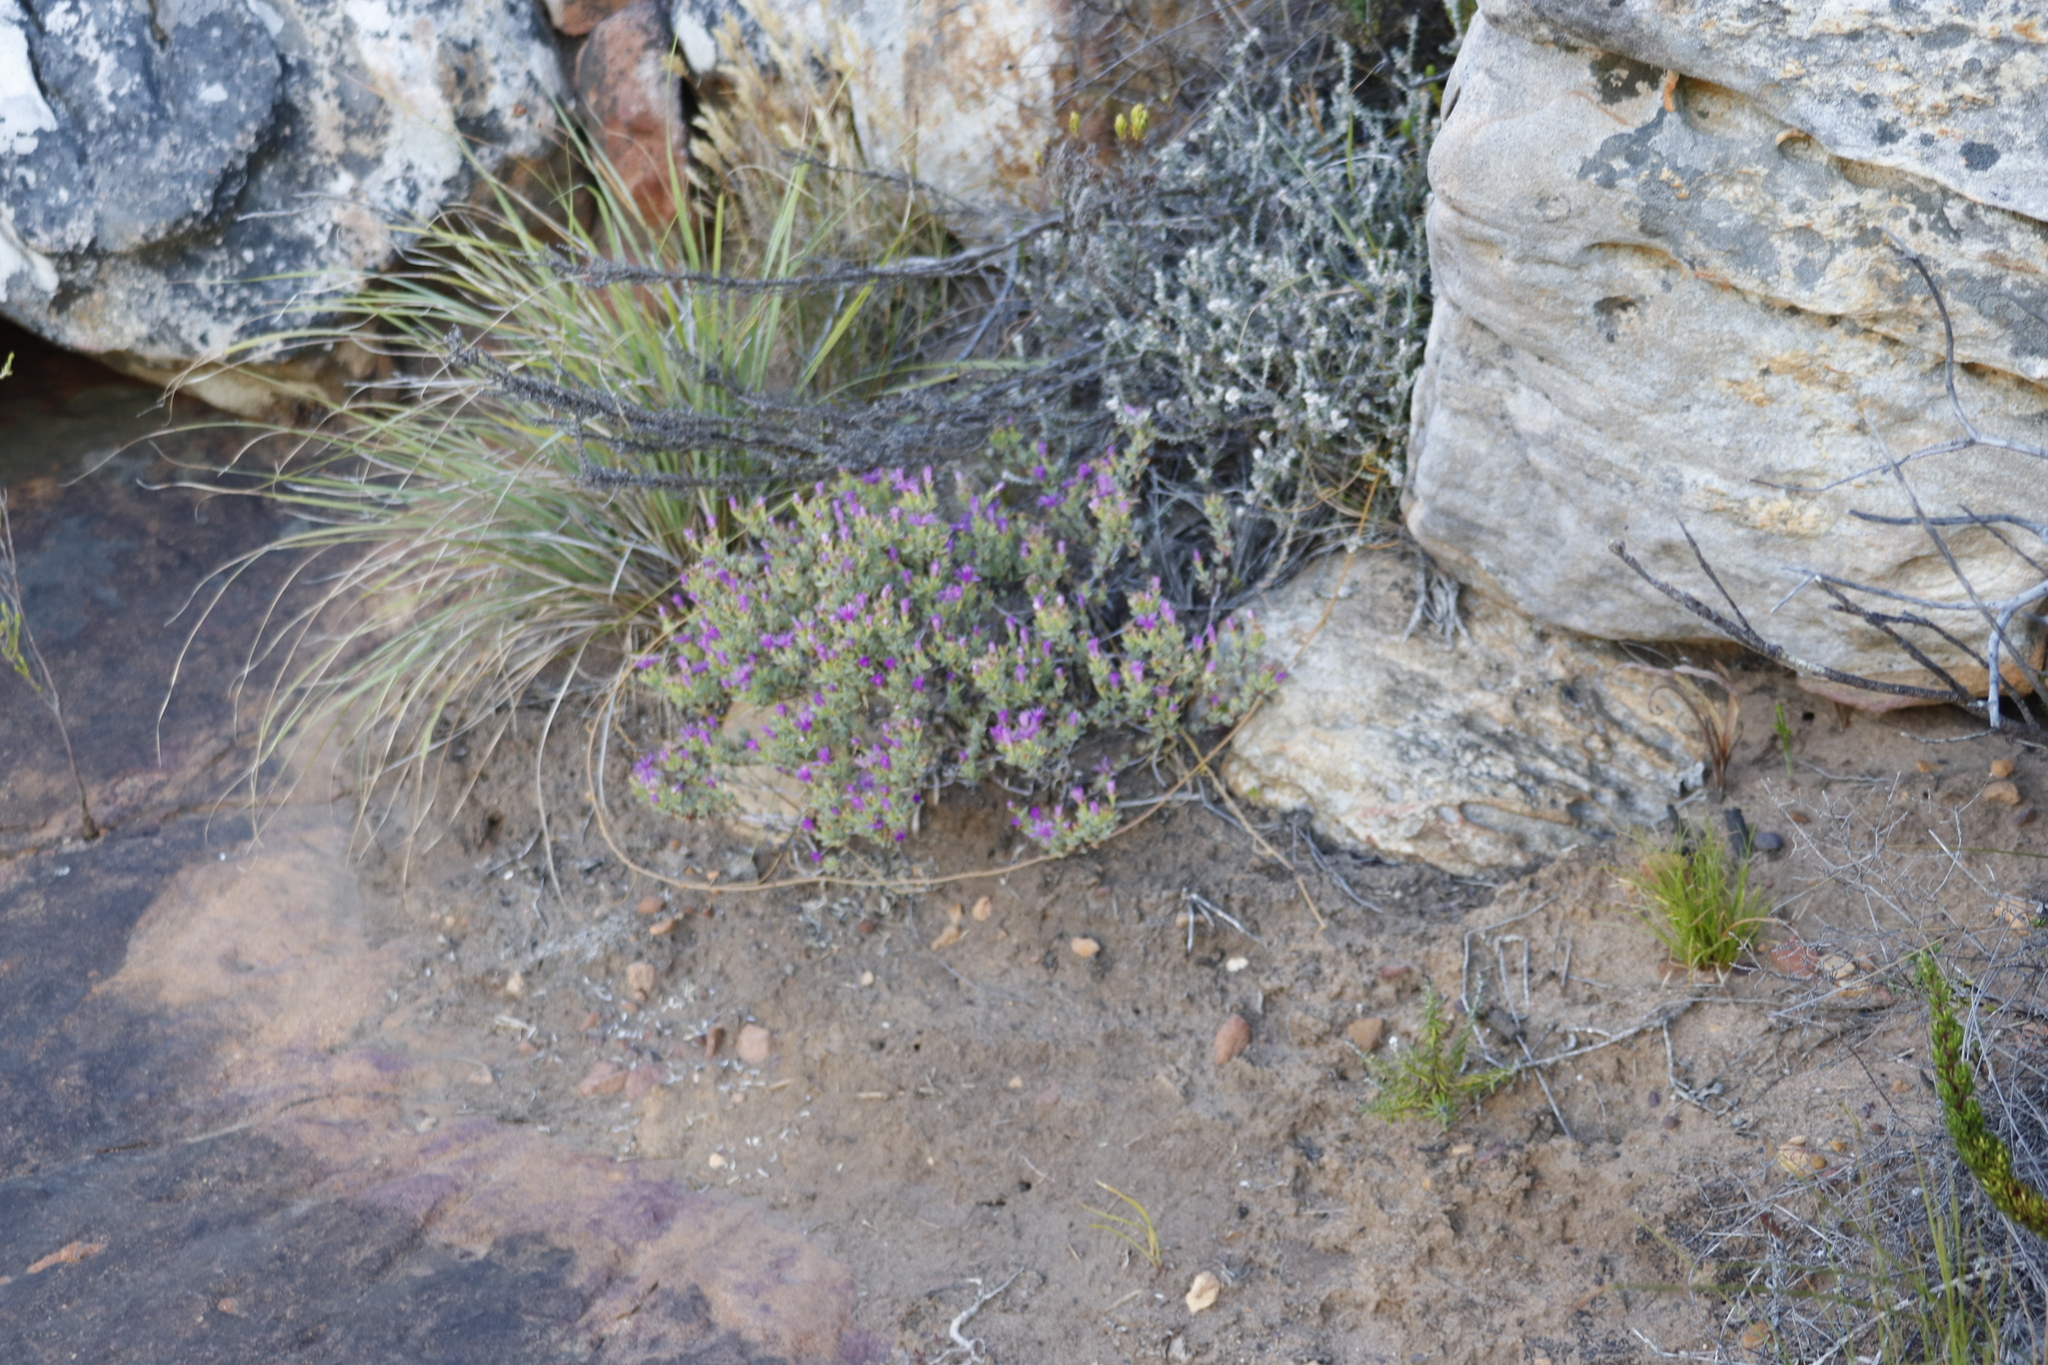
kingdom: Plantae
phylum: Tracheophyta
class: Magnoliopsida
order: Caryophyllales
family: Aizoaceae
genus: Lampranthus
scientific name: Lampranthus glomeratus
